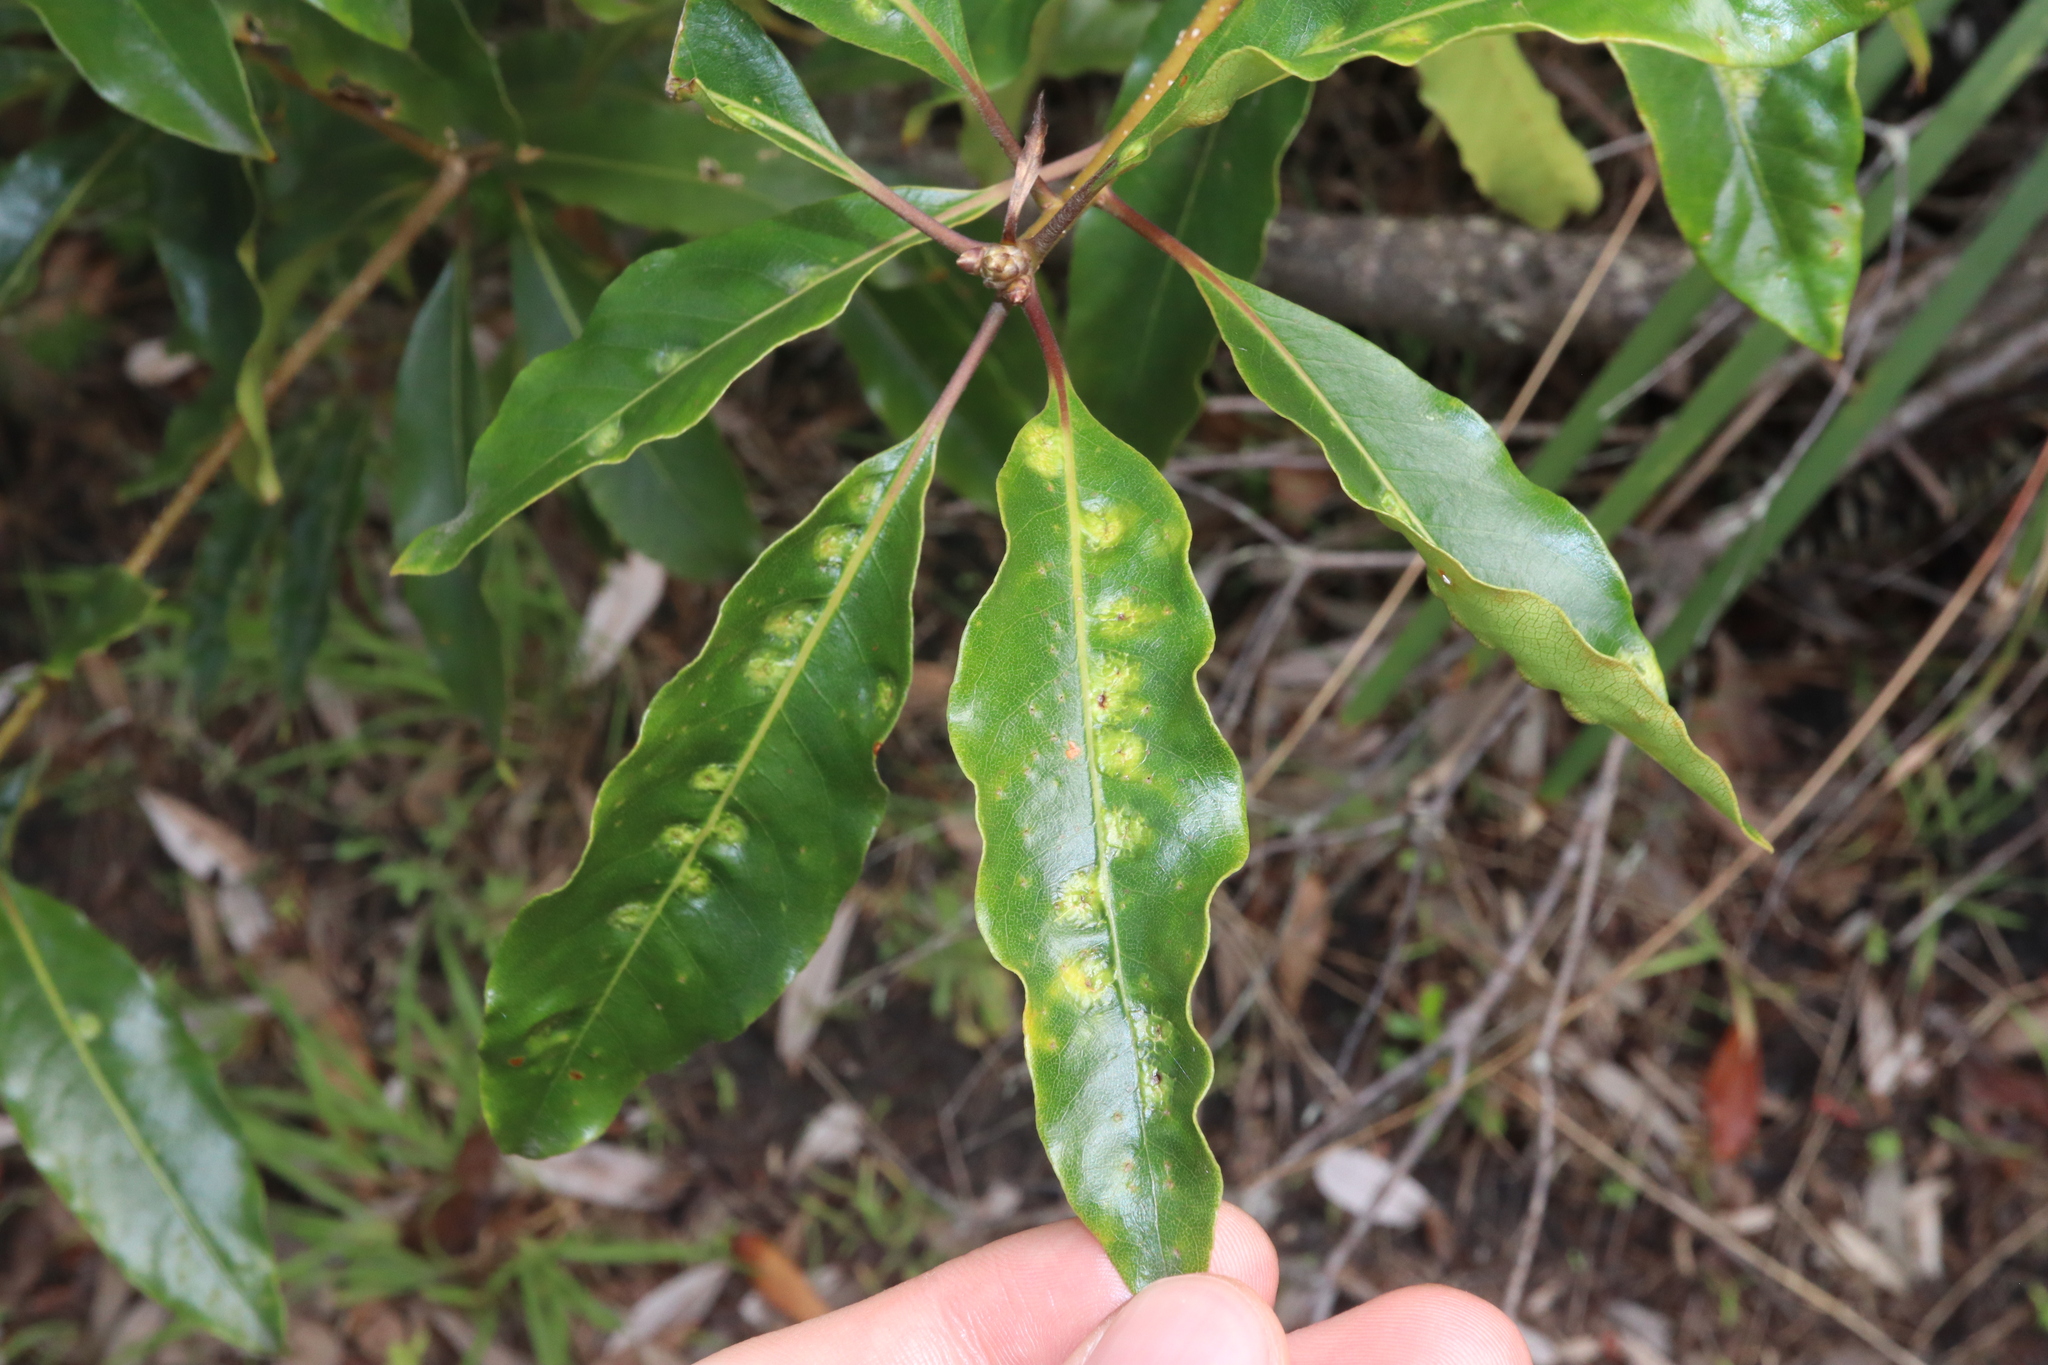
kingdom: Animalia
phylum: Arthropoda
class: Insecta
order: Diptera
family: Agromyzidae
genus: Phytoliriomyza
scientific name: Phytoliriomyza pittosporophylli
